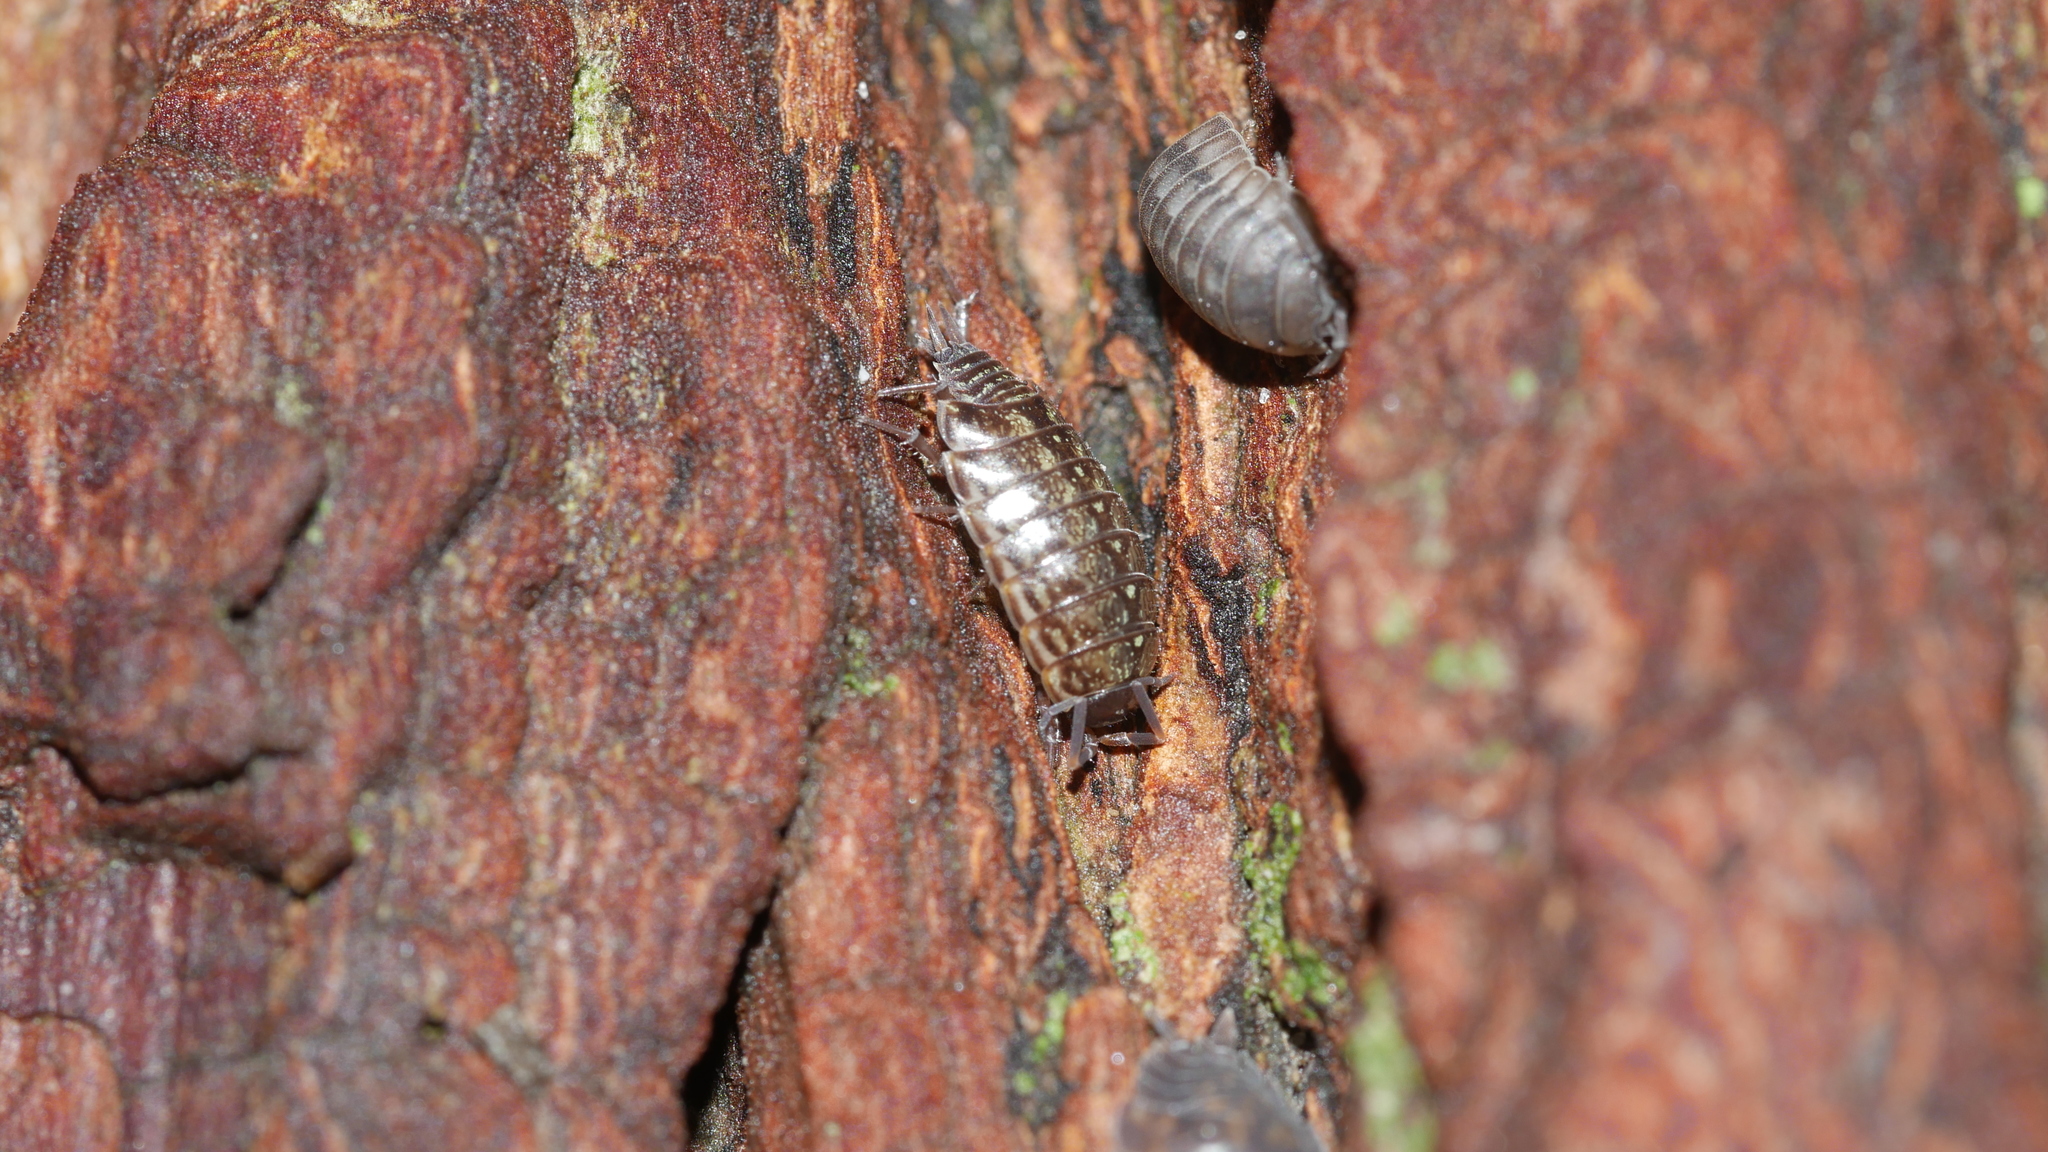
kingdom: Animalia
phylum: Arthropoda
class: Malacostraca
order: Isopoda
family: Philosciidae
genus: Philoscia
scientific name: Philoscia muscorum
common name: Common striped woodlouse
